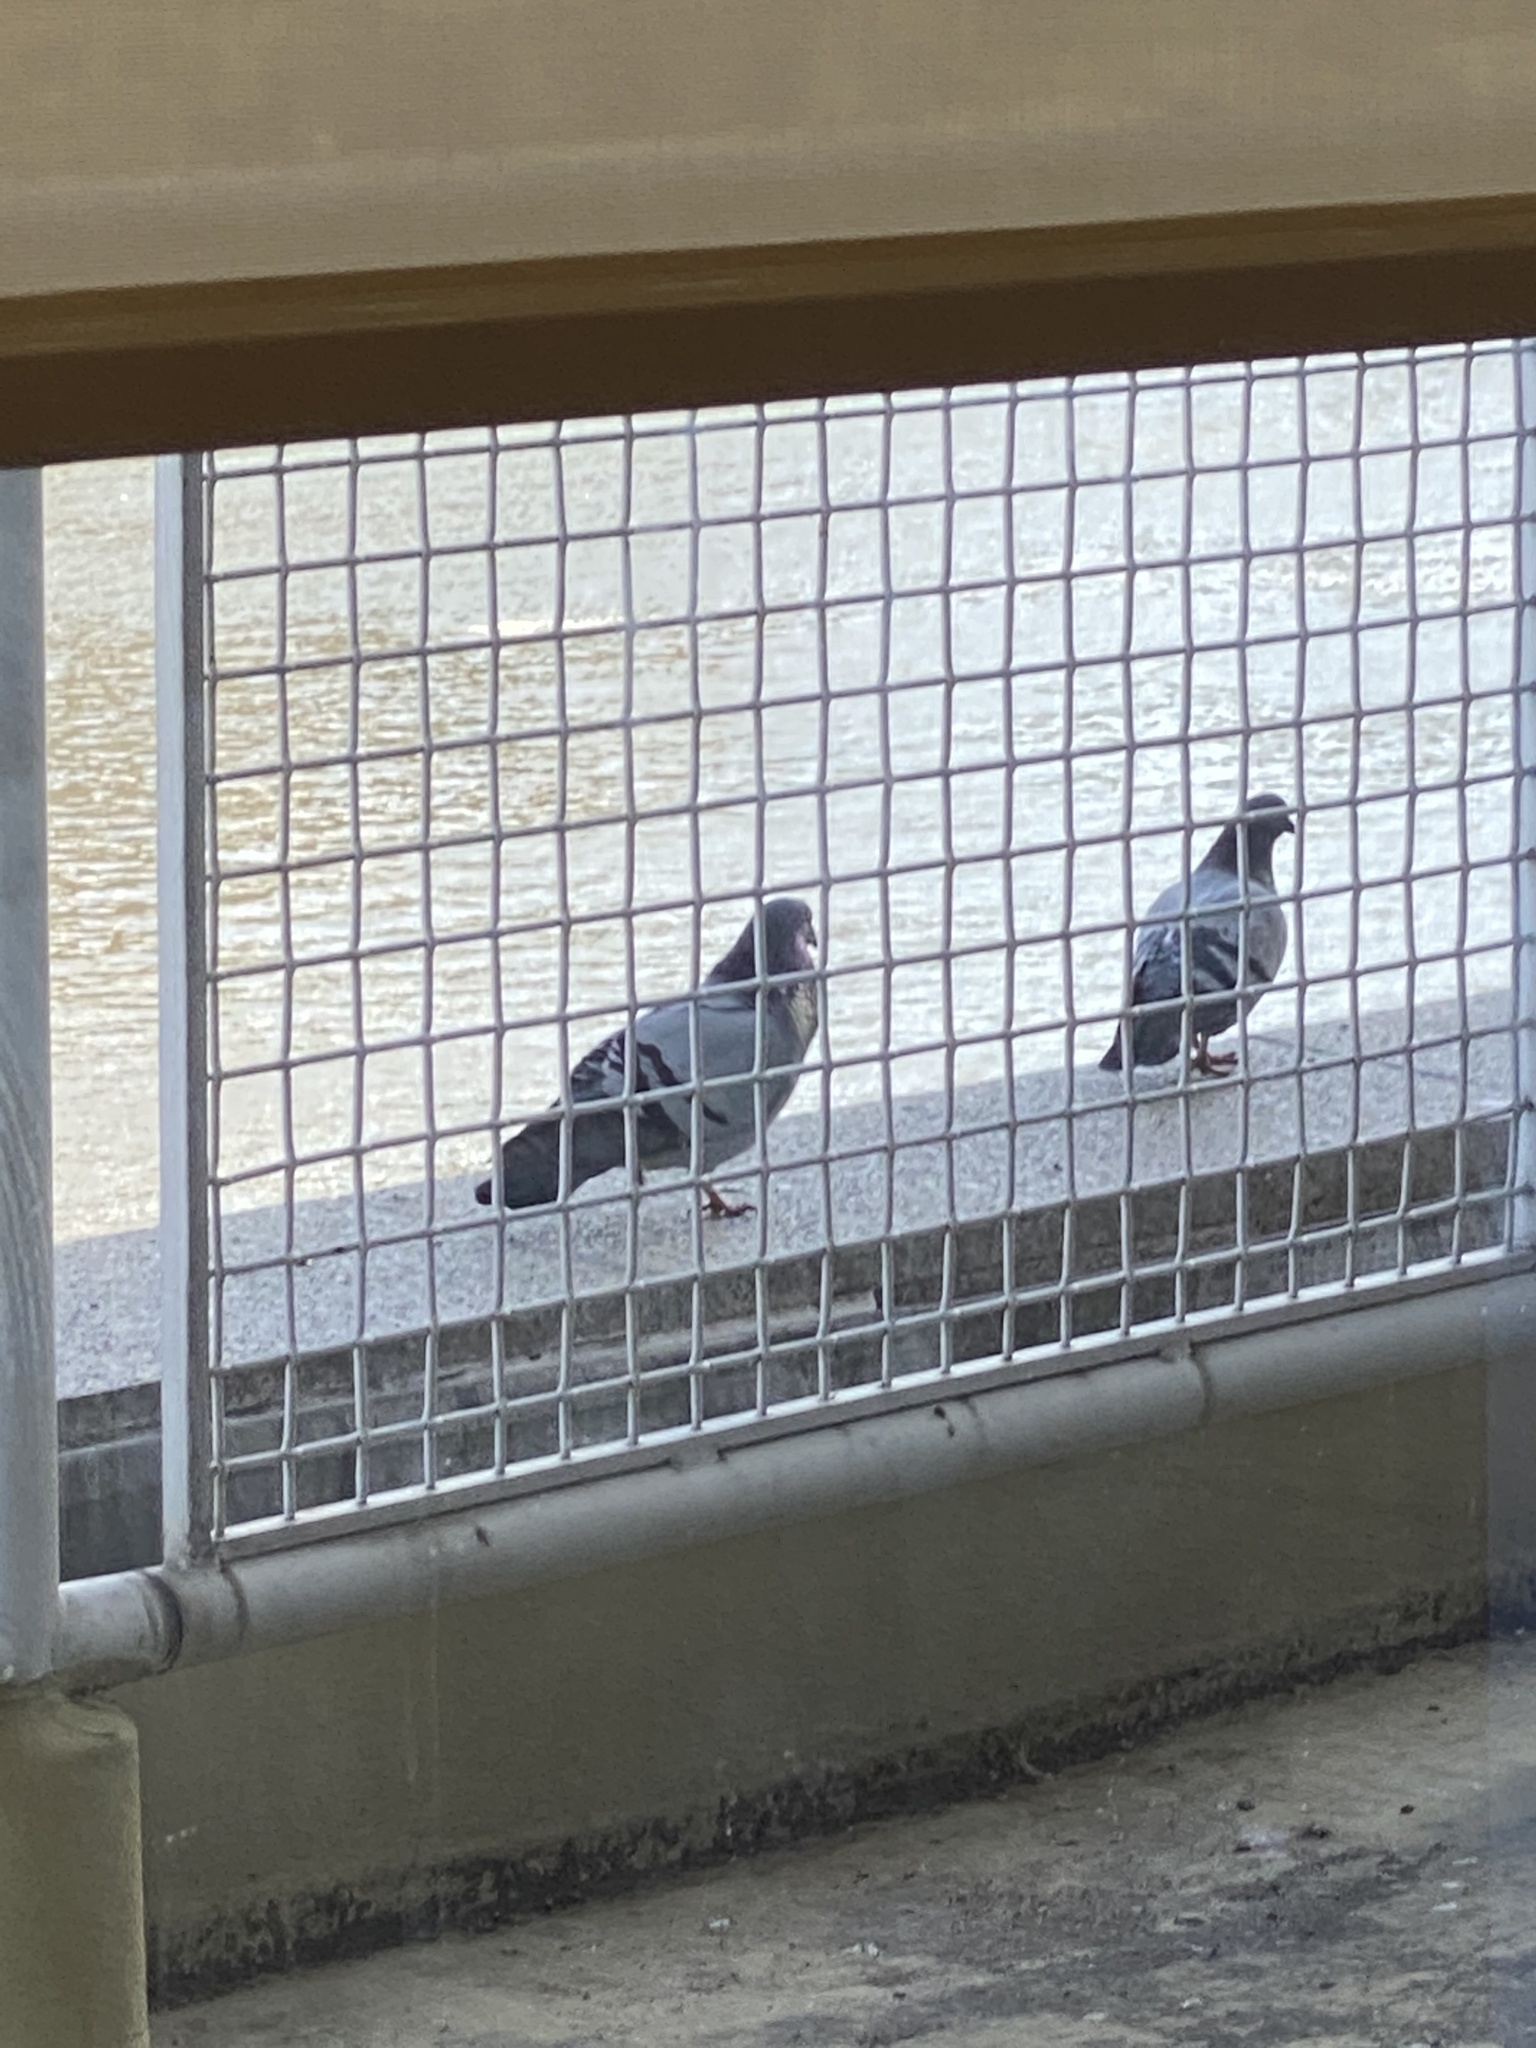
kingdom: Animalia
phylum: Chordata
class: Aves
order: Columbiformes
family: Columbidae
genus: Columba
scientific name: Columba livia
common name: Rock pigeon
